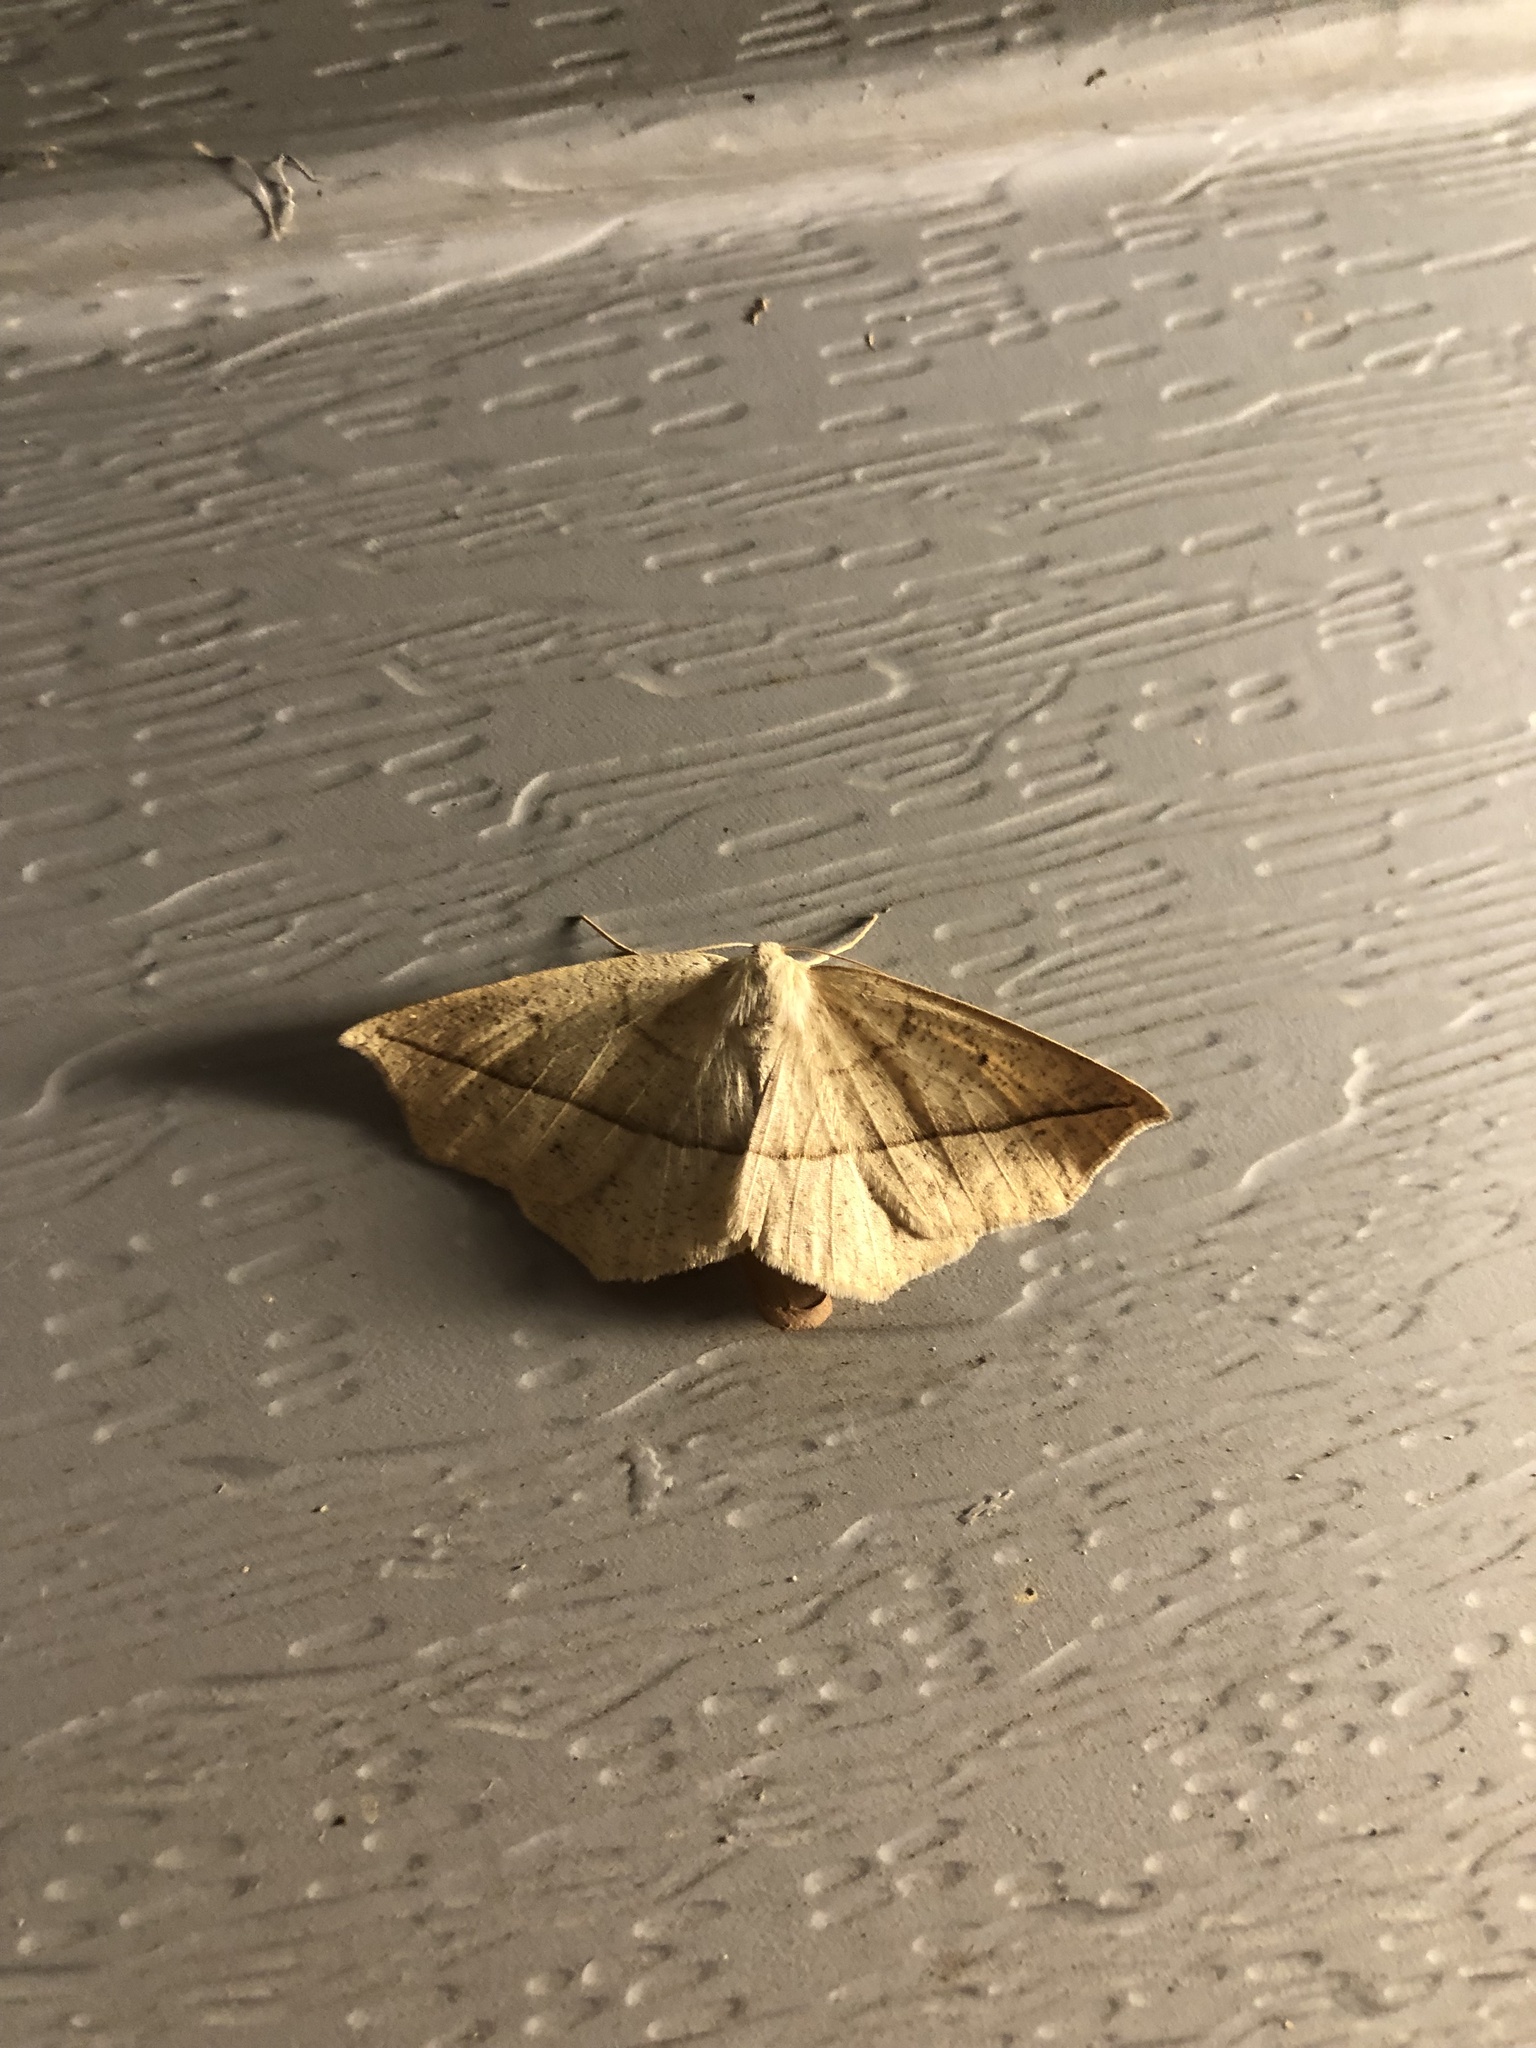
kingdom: Animalia
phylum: Arthropoda
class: Insecta
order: Lepidoptera
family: Geometridae
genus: Eusarca
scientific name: Eusarca confusaria
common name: Confused eusarca
